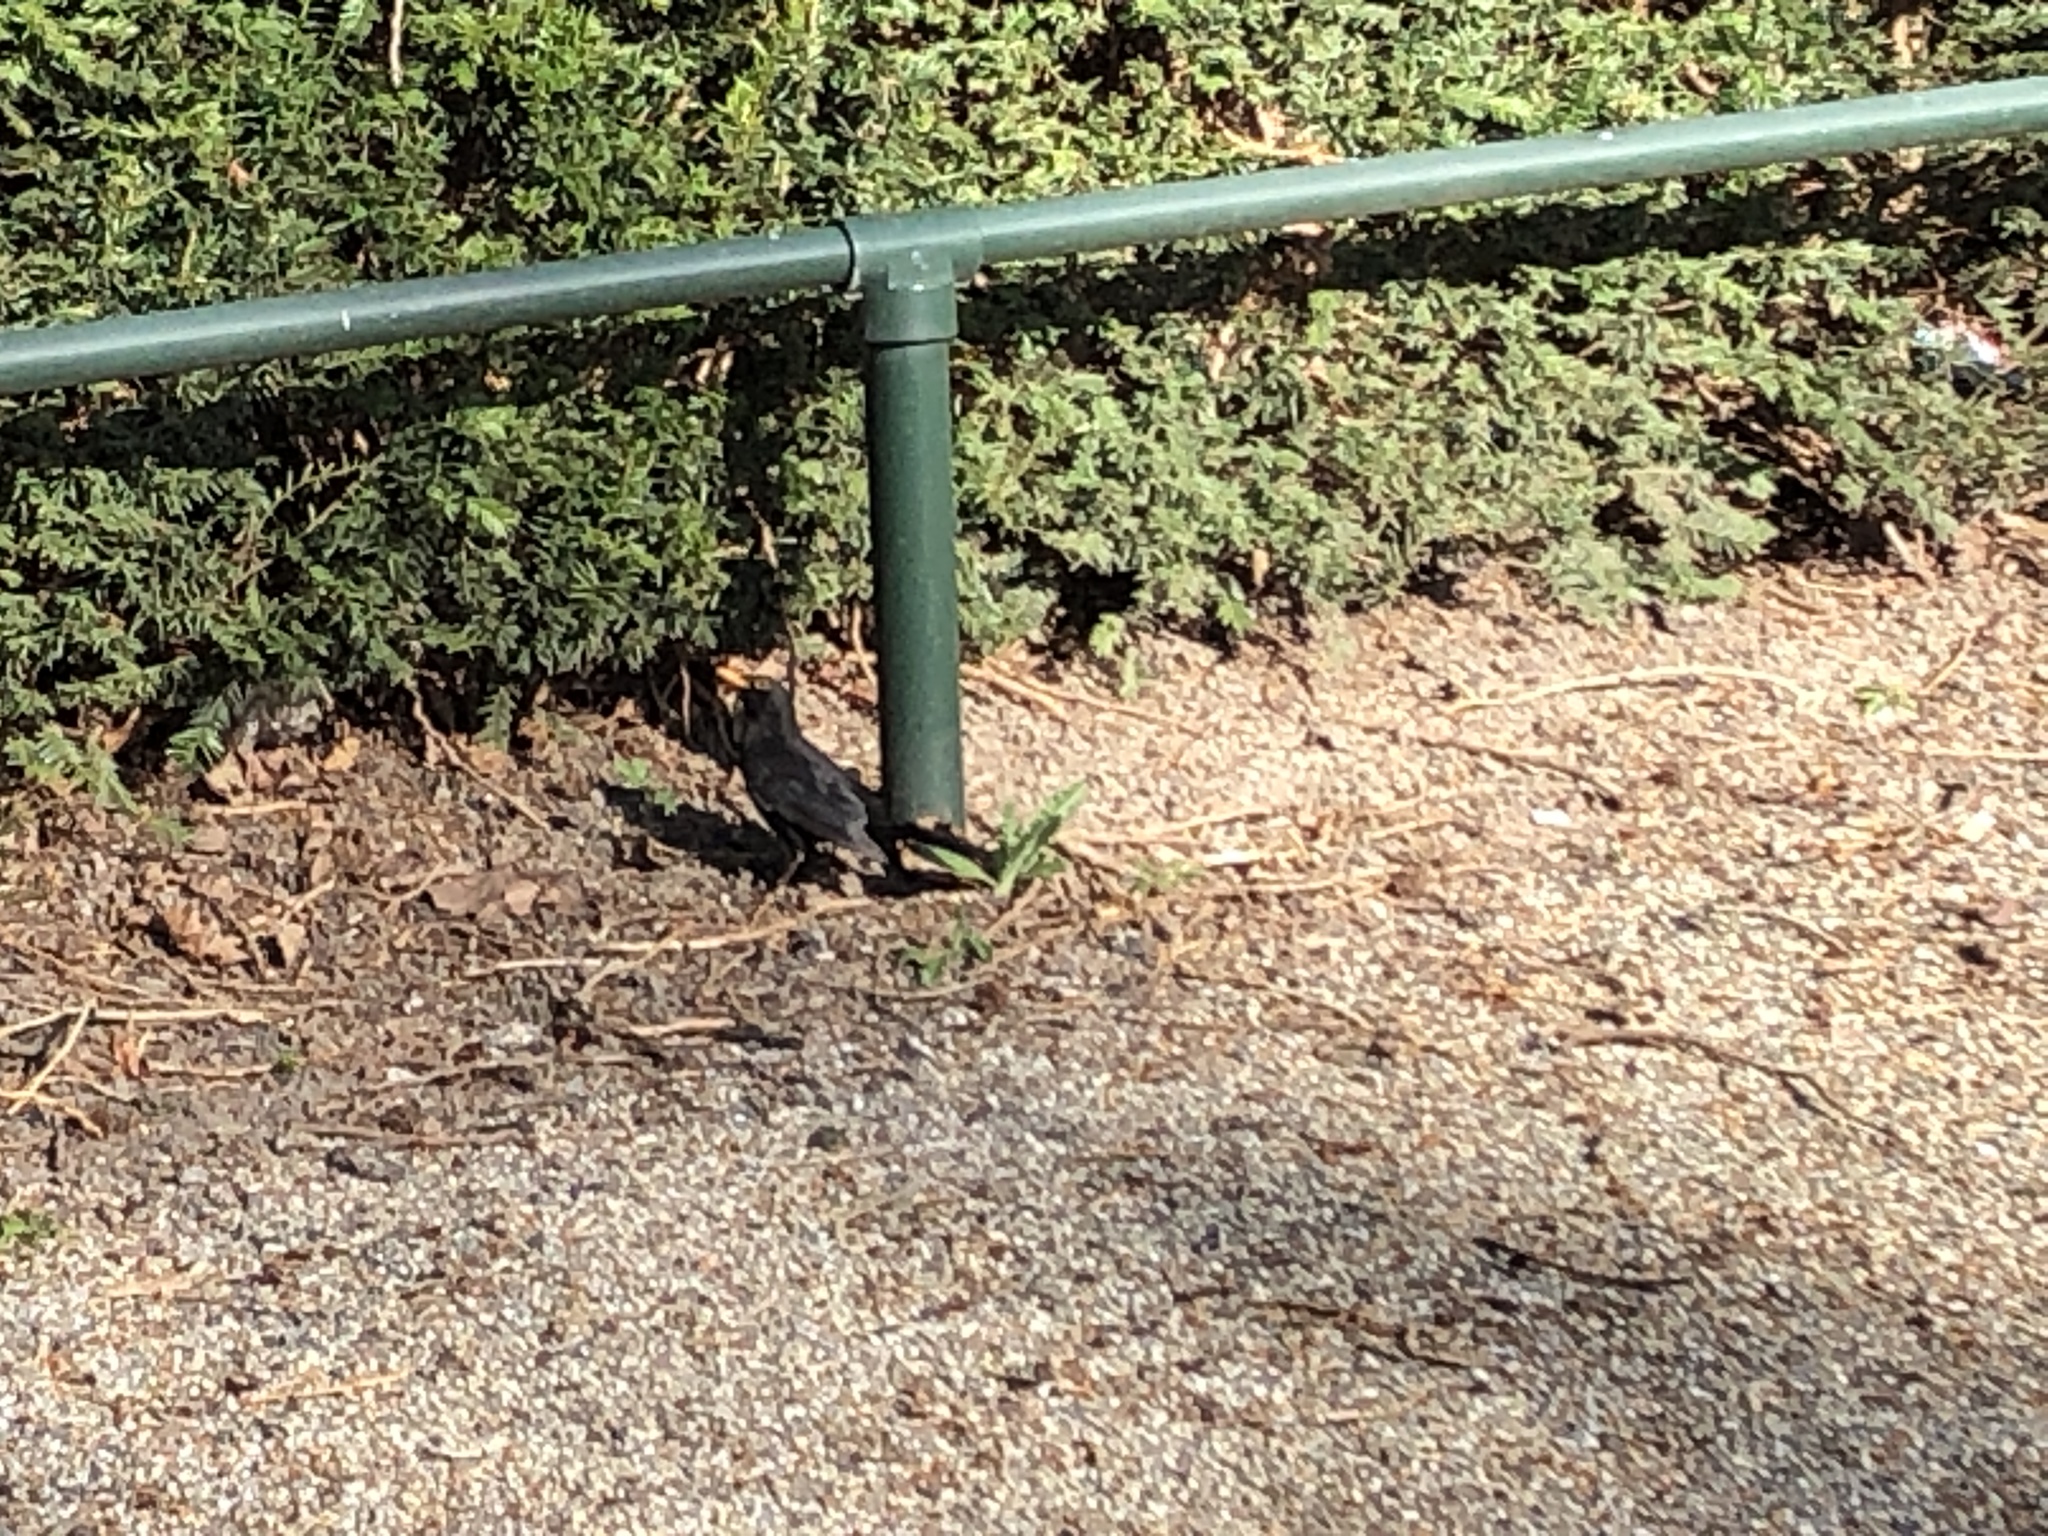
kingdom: Animalia
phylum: Chordata
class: Aves
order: Passeriformes
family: Turdidae
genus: Turdus
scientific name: Turdus merula
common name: Common blackbird
